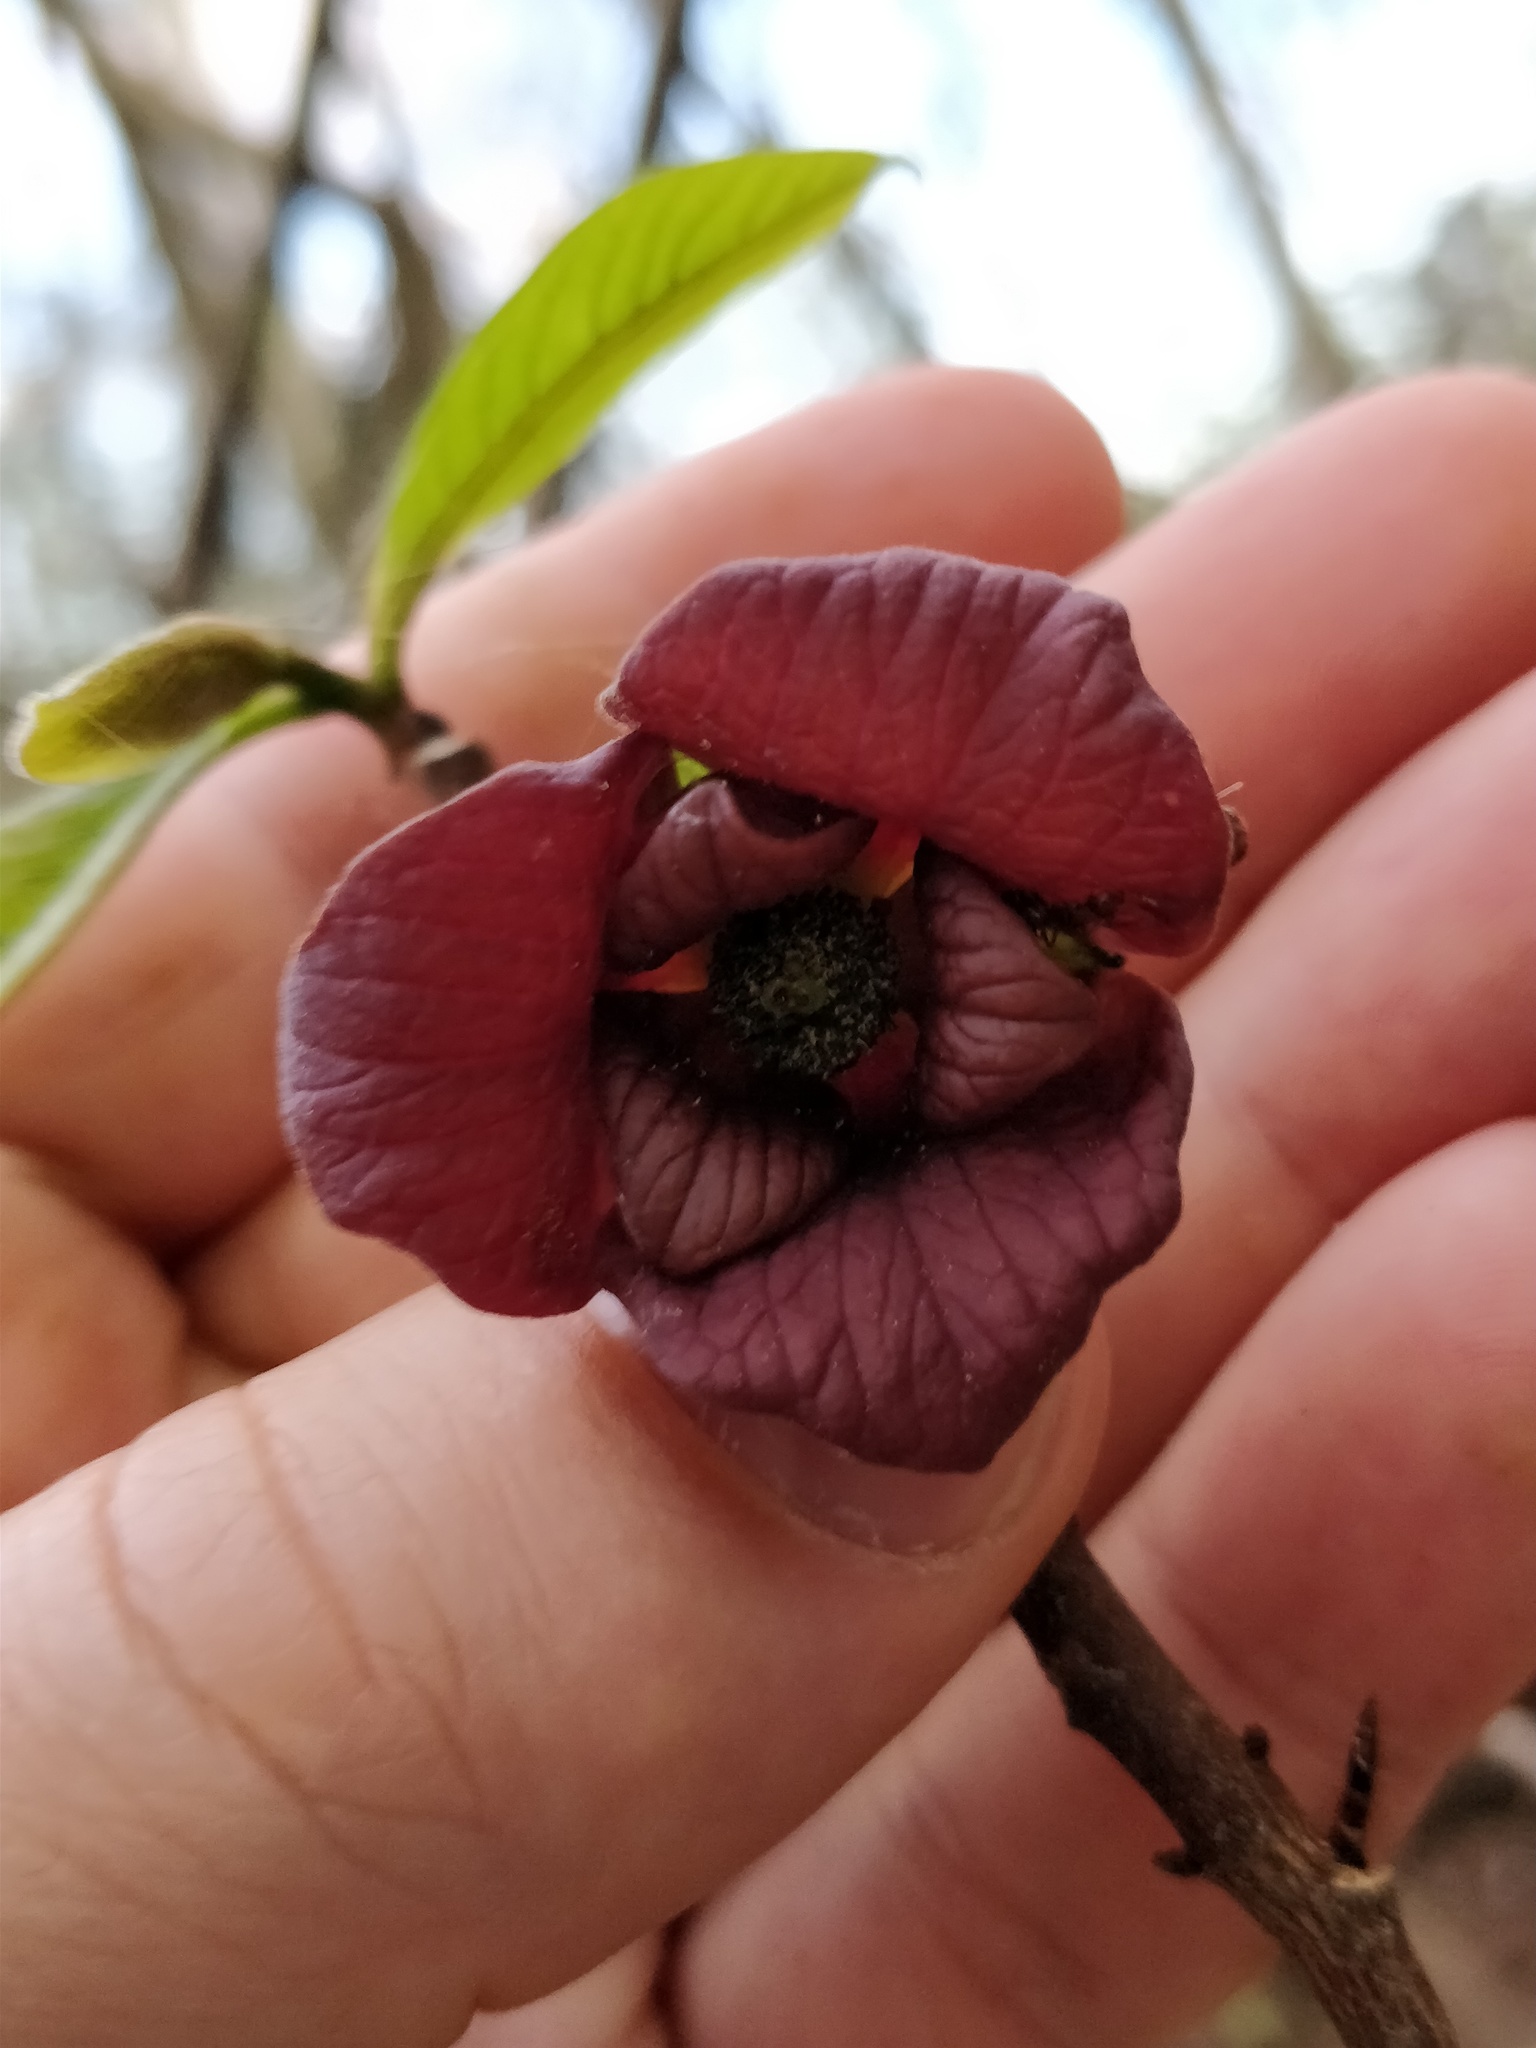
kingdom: Plantae
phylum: Tracheophyta
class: Magnoliopsida
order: Magnoliales
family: Annonaceae
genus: Asimina
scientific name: Asimina triloba
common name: Dog-banana
